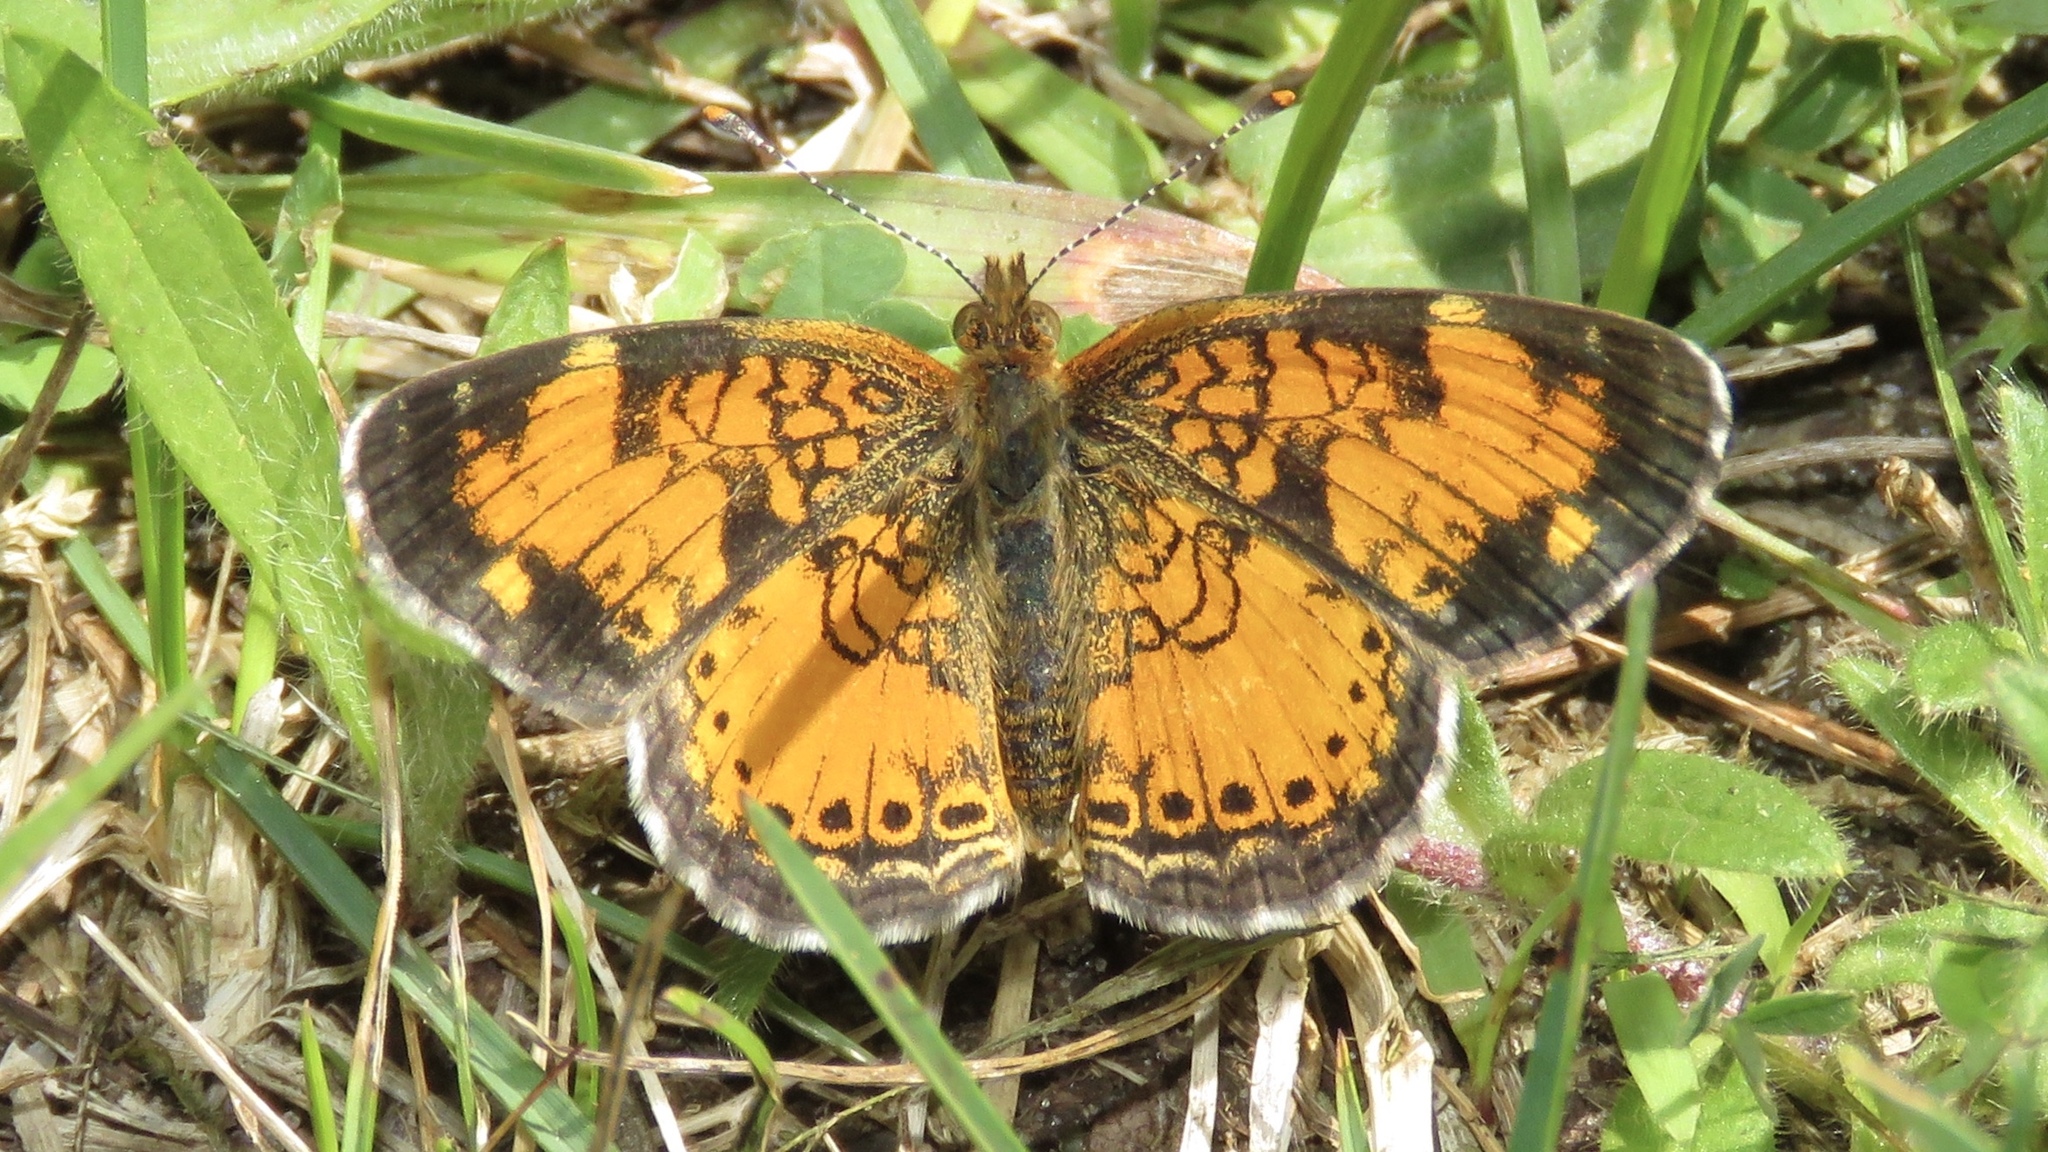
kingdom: Animalia
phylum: Arthropoda
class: Insecta
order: Lepidoptera
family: Nymphalidae
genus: Phyciodes
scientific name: Phyciodes tharos
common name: Pearl crescent
